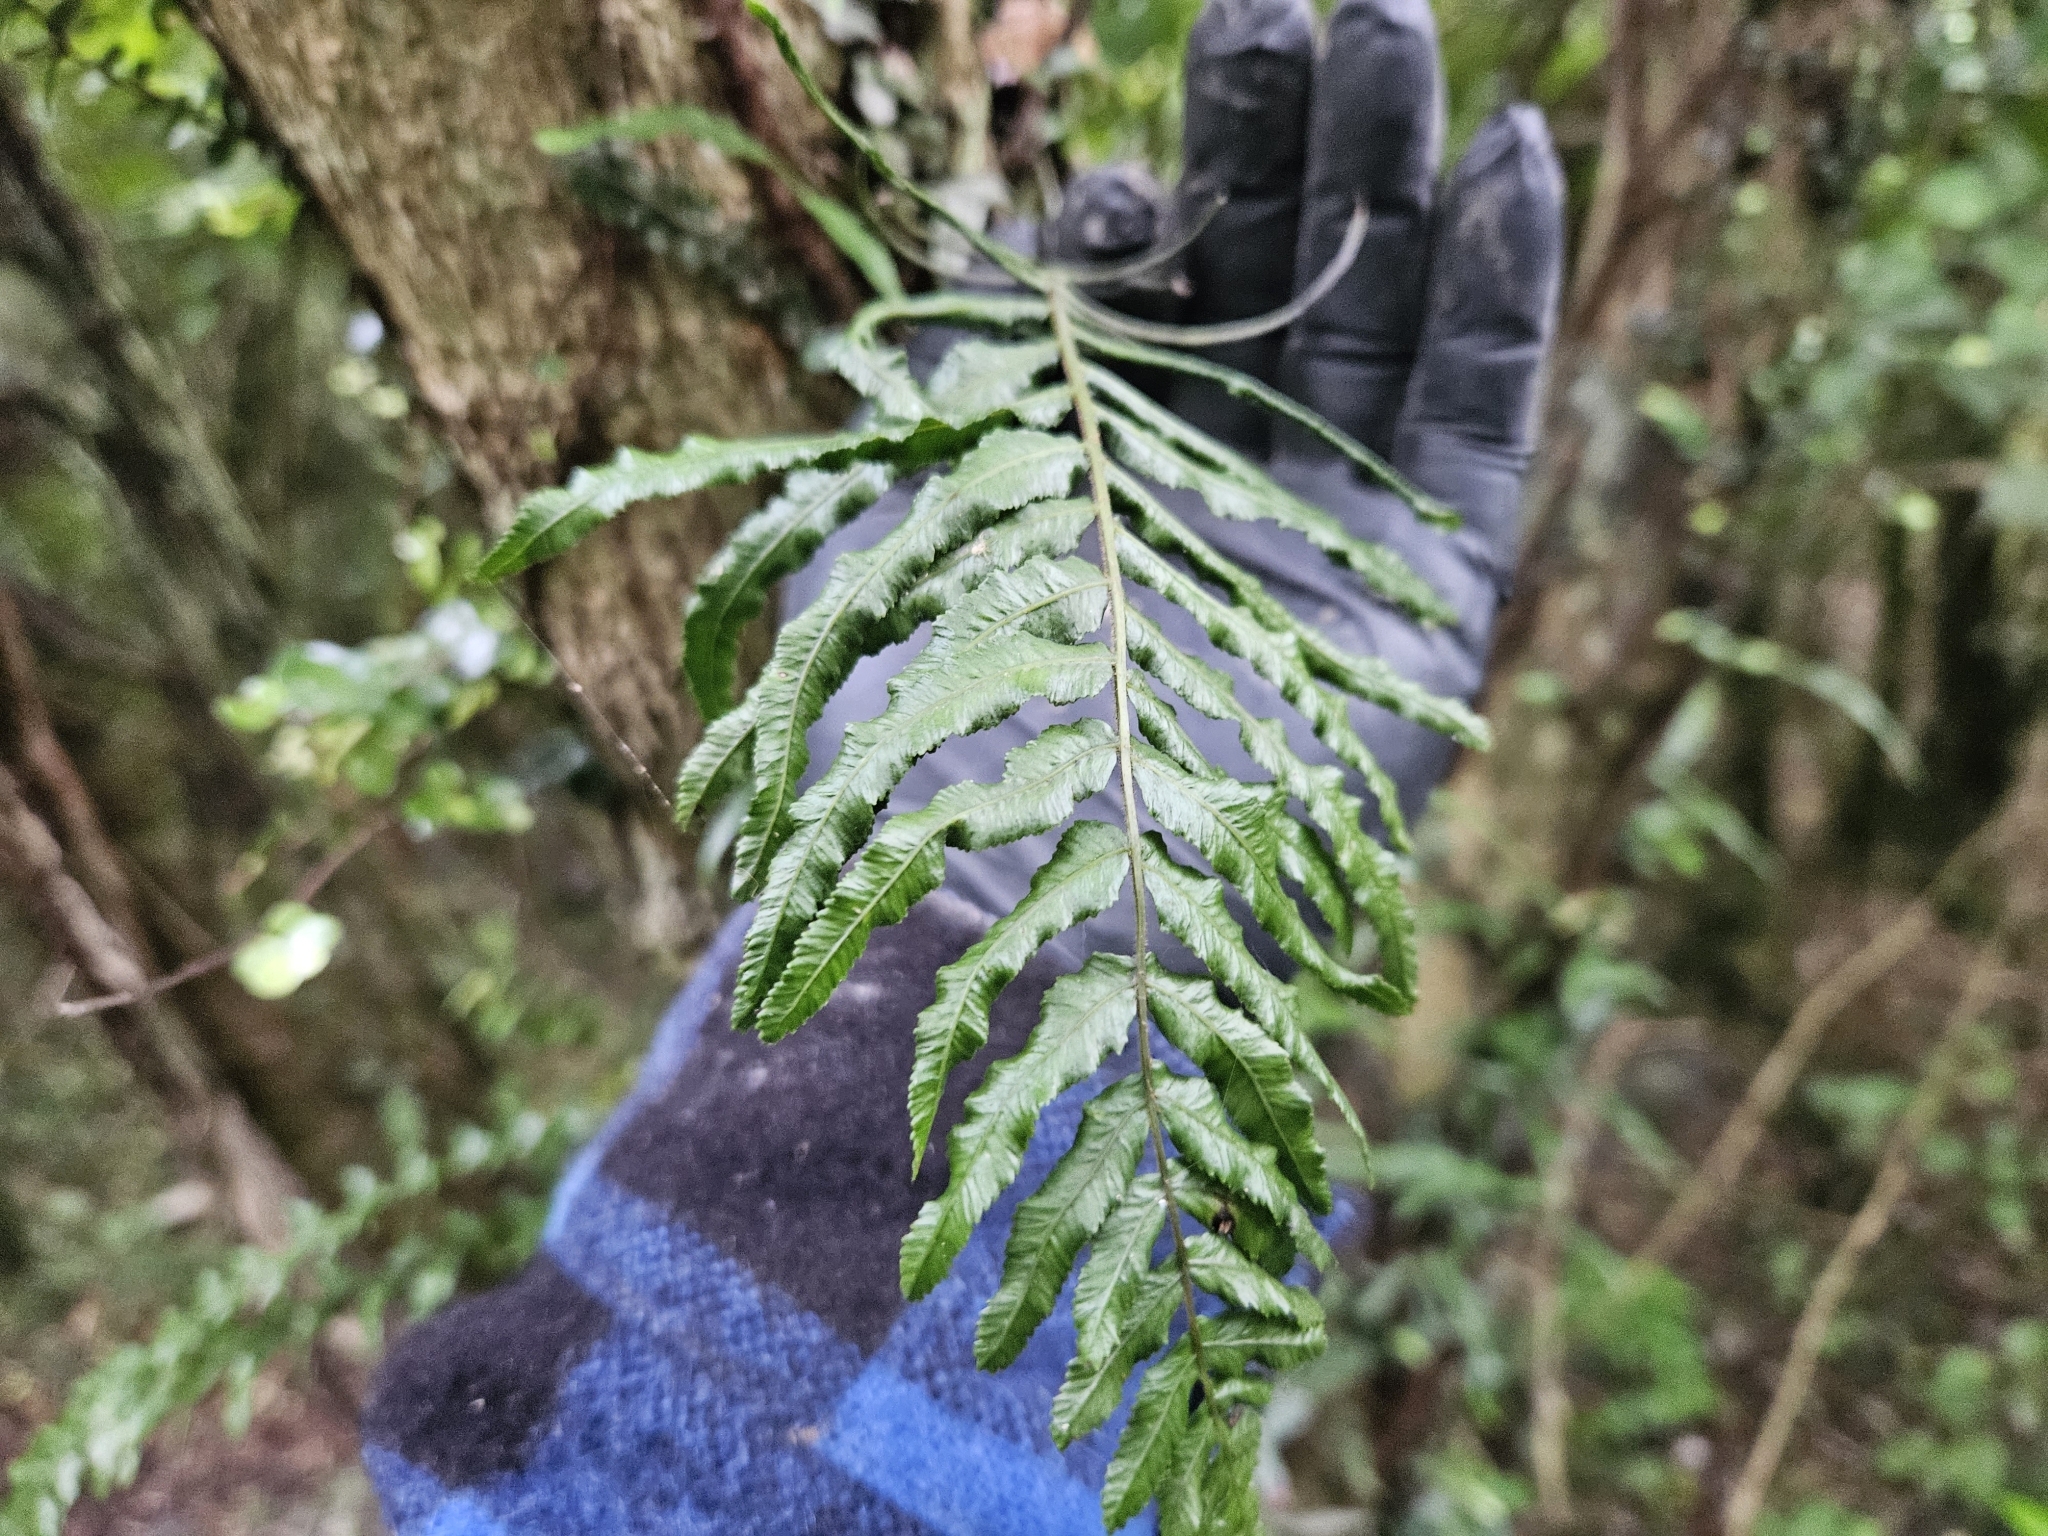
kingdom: Plantae
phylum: Tracheophyta
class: Polypodiopsida
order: Polypodiales
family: Blechnaceae
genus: Icarus
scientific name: Icarus filiformis
